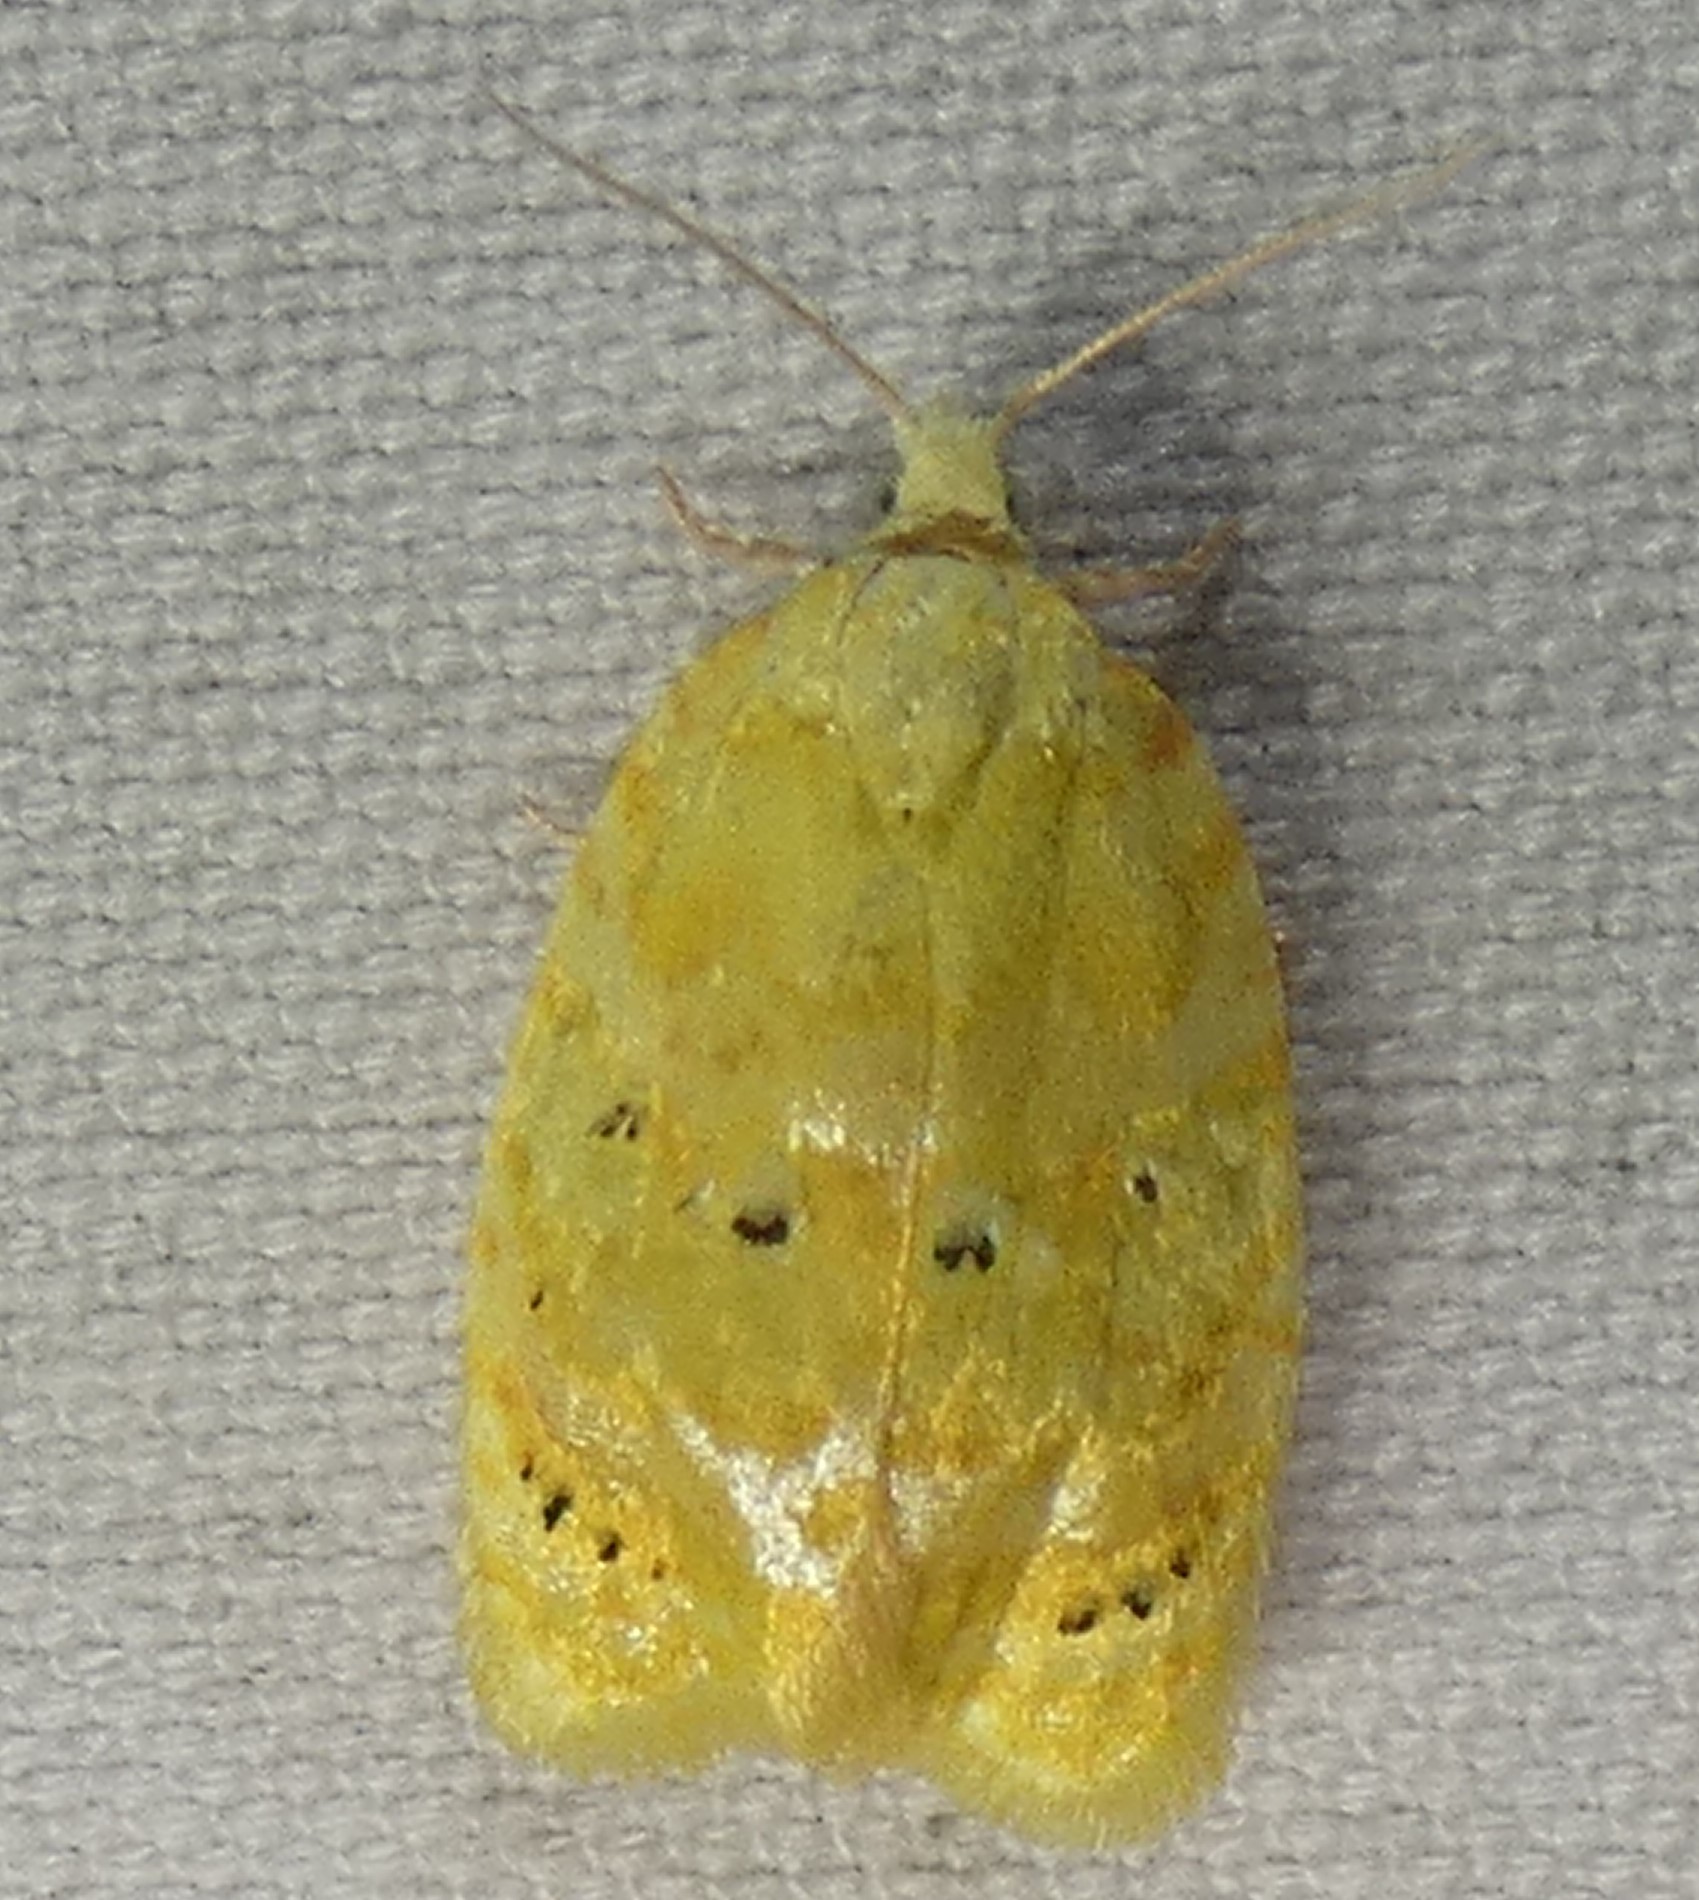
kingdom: Animalia
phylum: Arthropoda
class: Insecta
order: Lepidoptera
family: Tortricidae
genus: Acleris
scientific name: Acleris semipurpurana
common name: Oak leaftier moth
